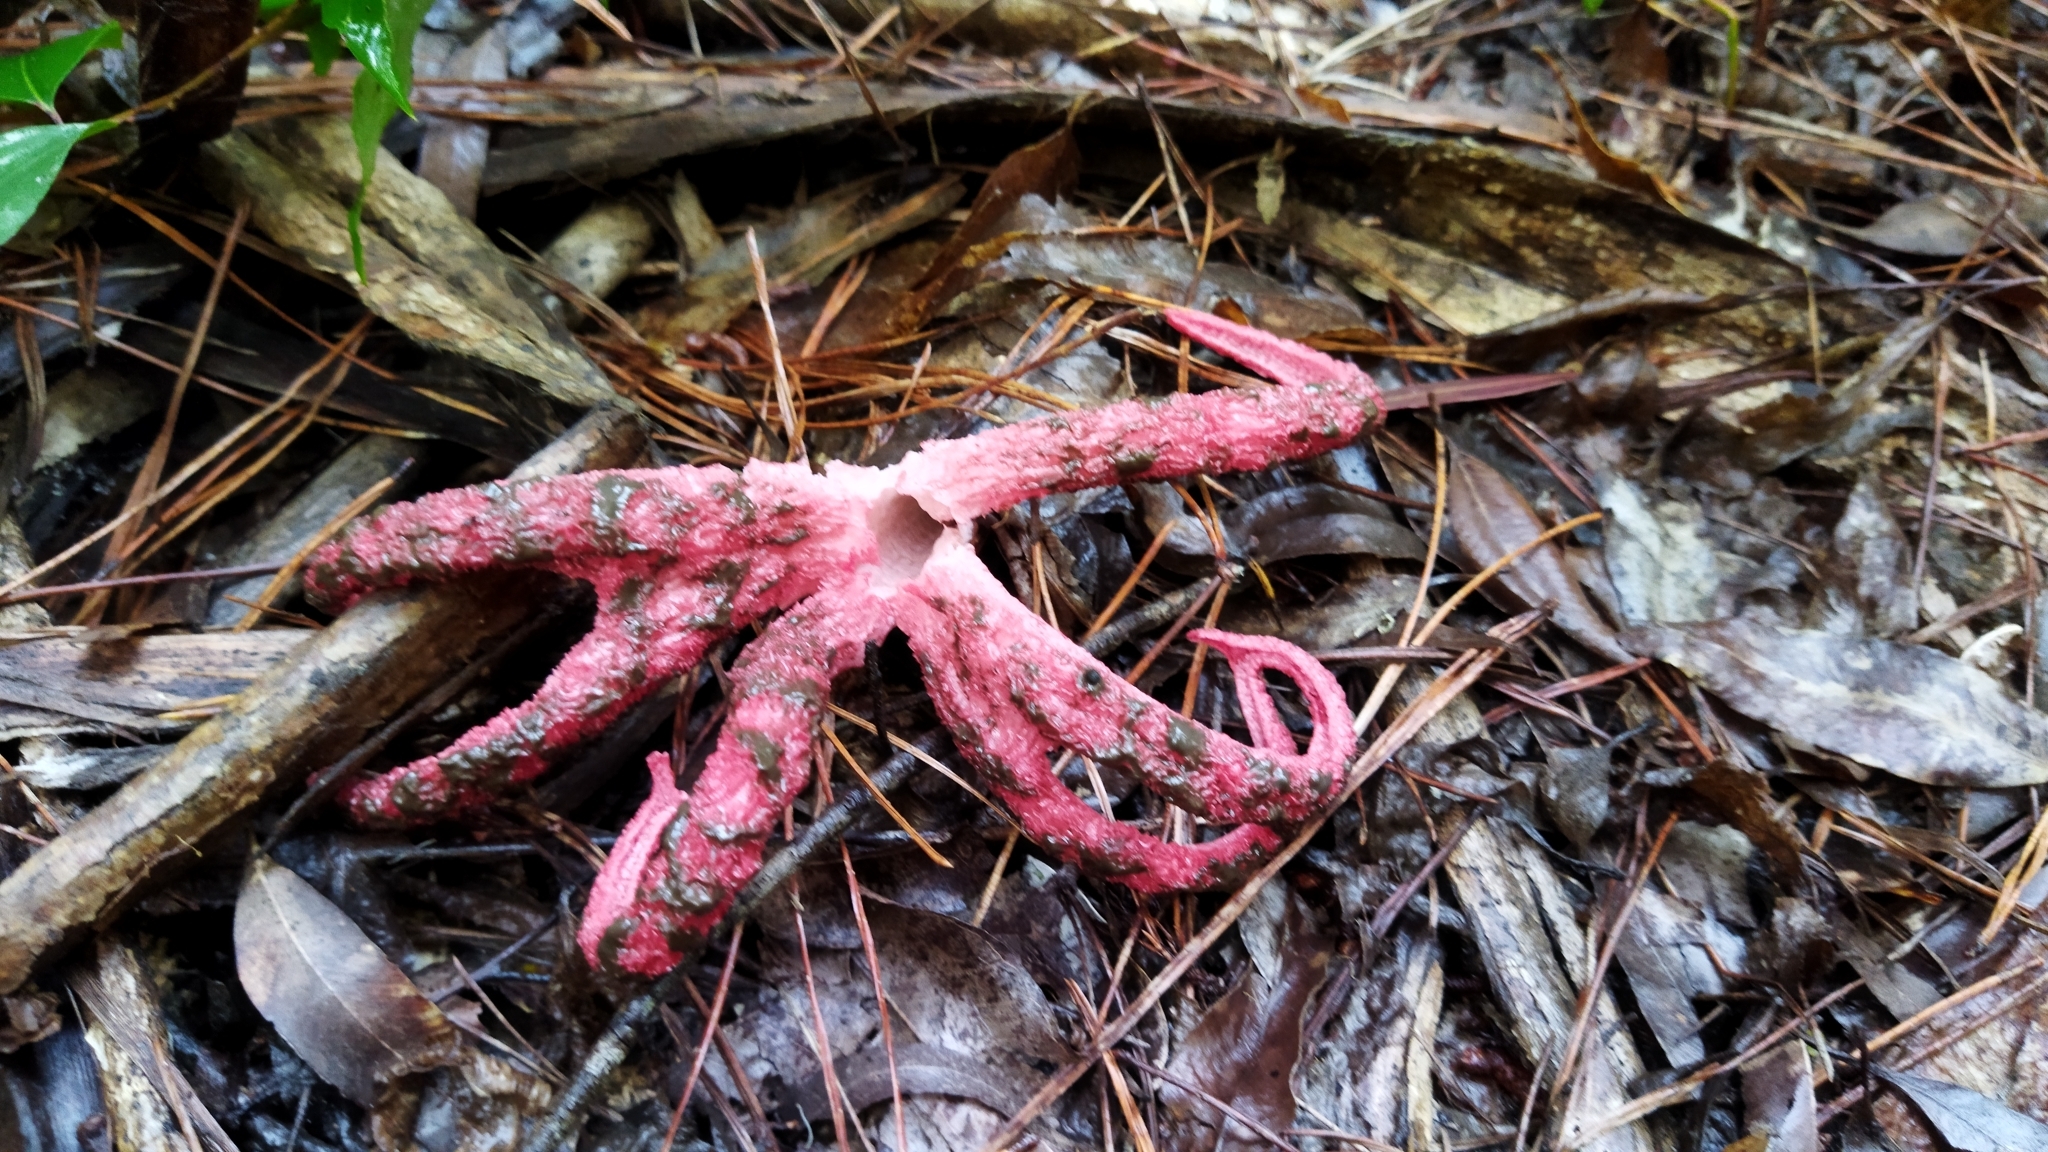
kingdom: Fungi
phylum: Basidiomycota
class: Agaricomycetes
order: Phallales
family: Phallaceae
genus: Clathrus
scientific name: Clathrus archeri
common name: Devil's fingers
